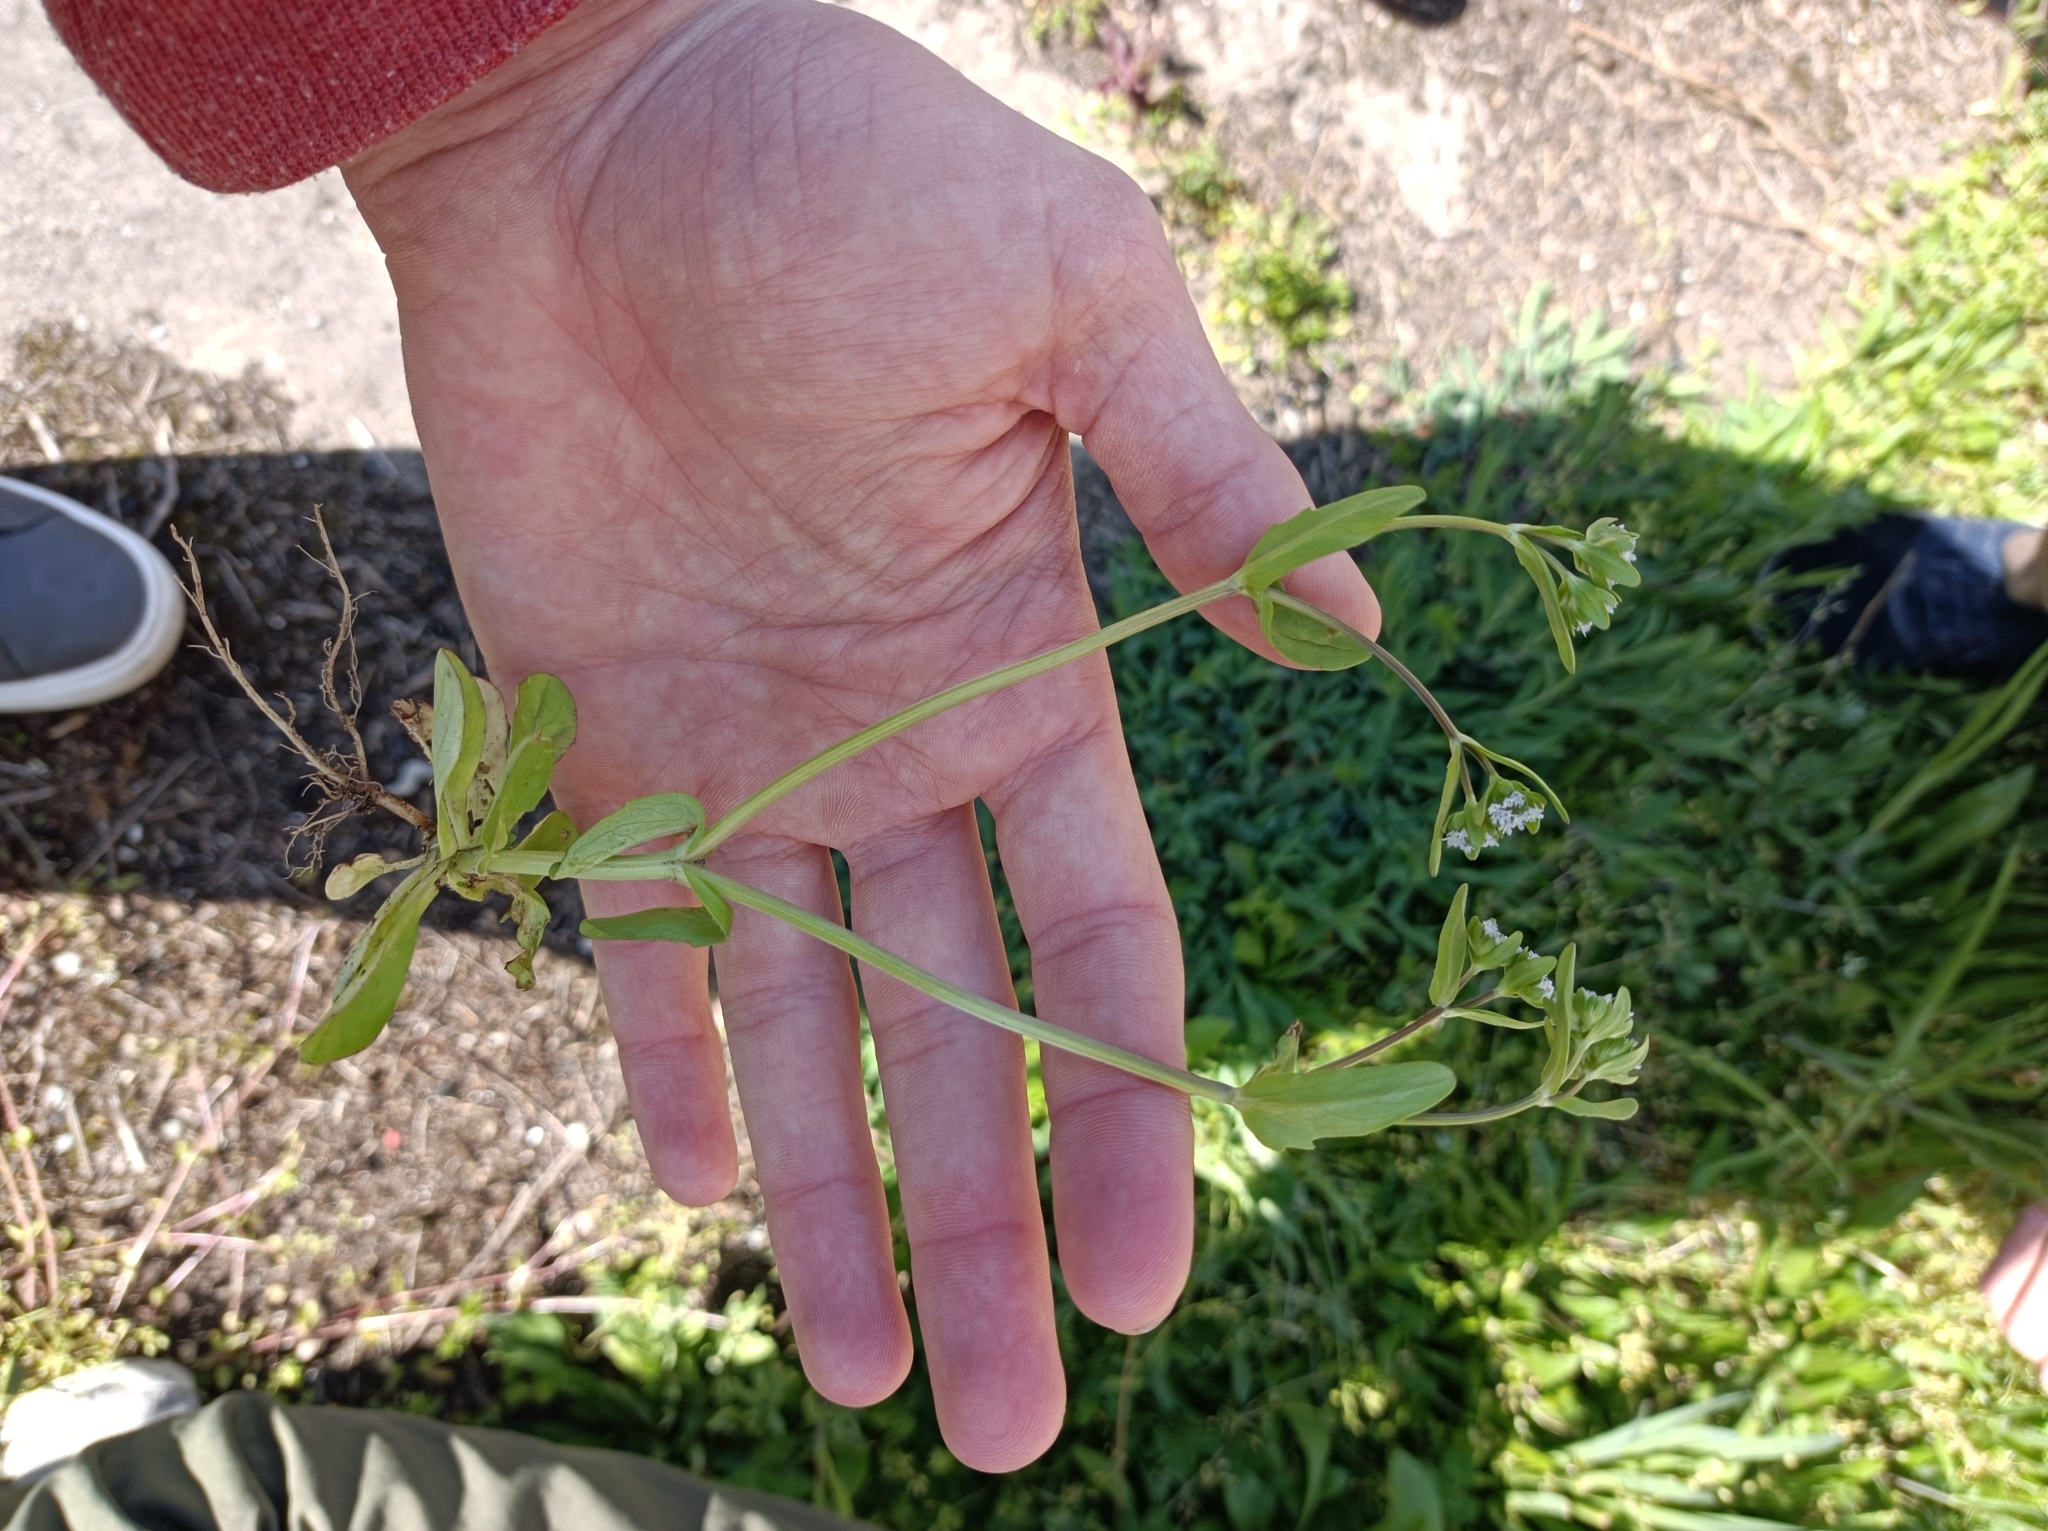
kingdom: Plantae
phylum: Tracheophyta
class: Magnoliopsida
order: Dipsacales
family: Caprifoliaceae
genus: Valerianella
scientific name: Valerianella locusta
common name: Common cornsalad
